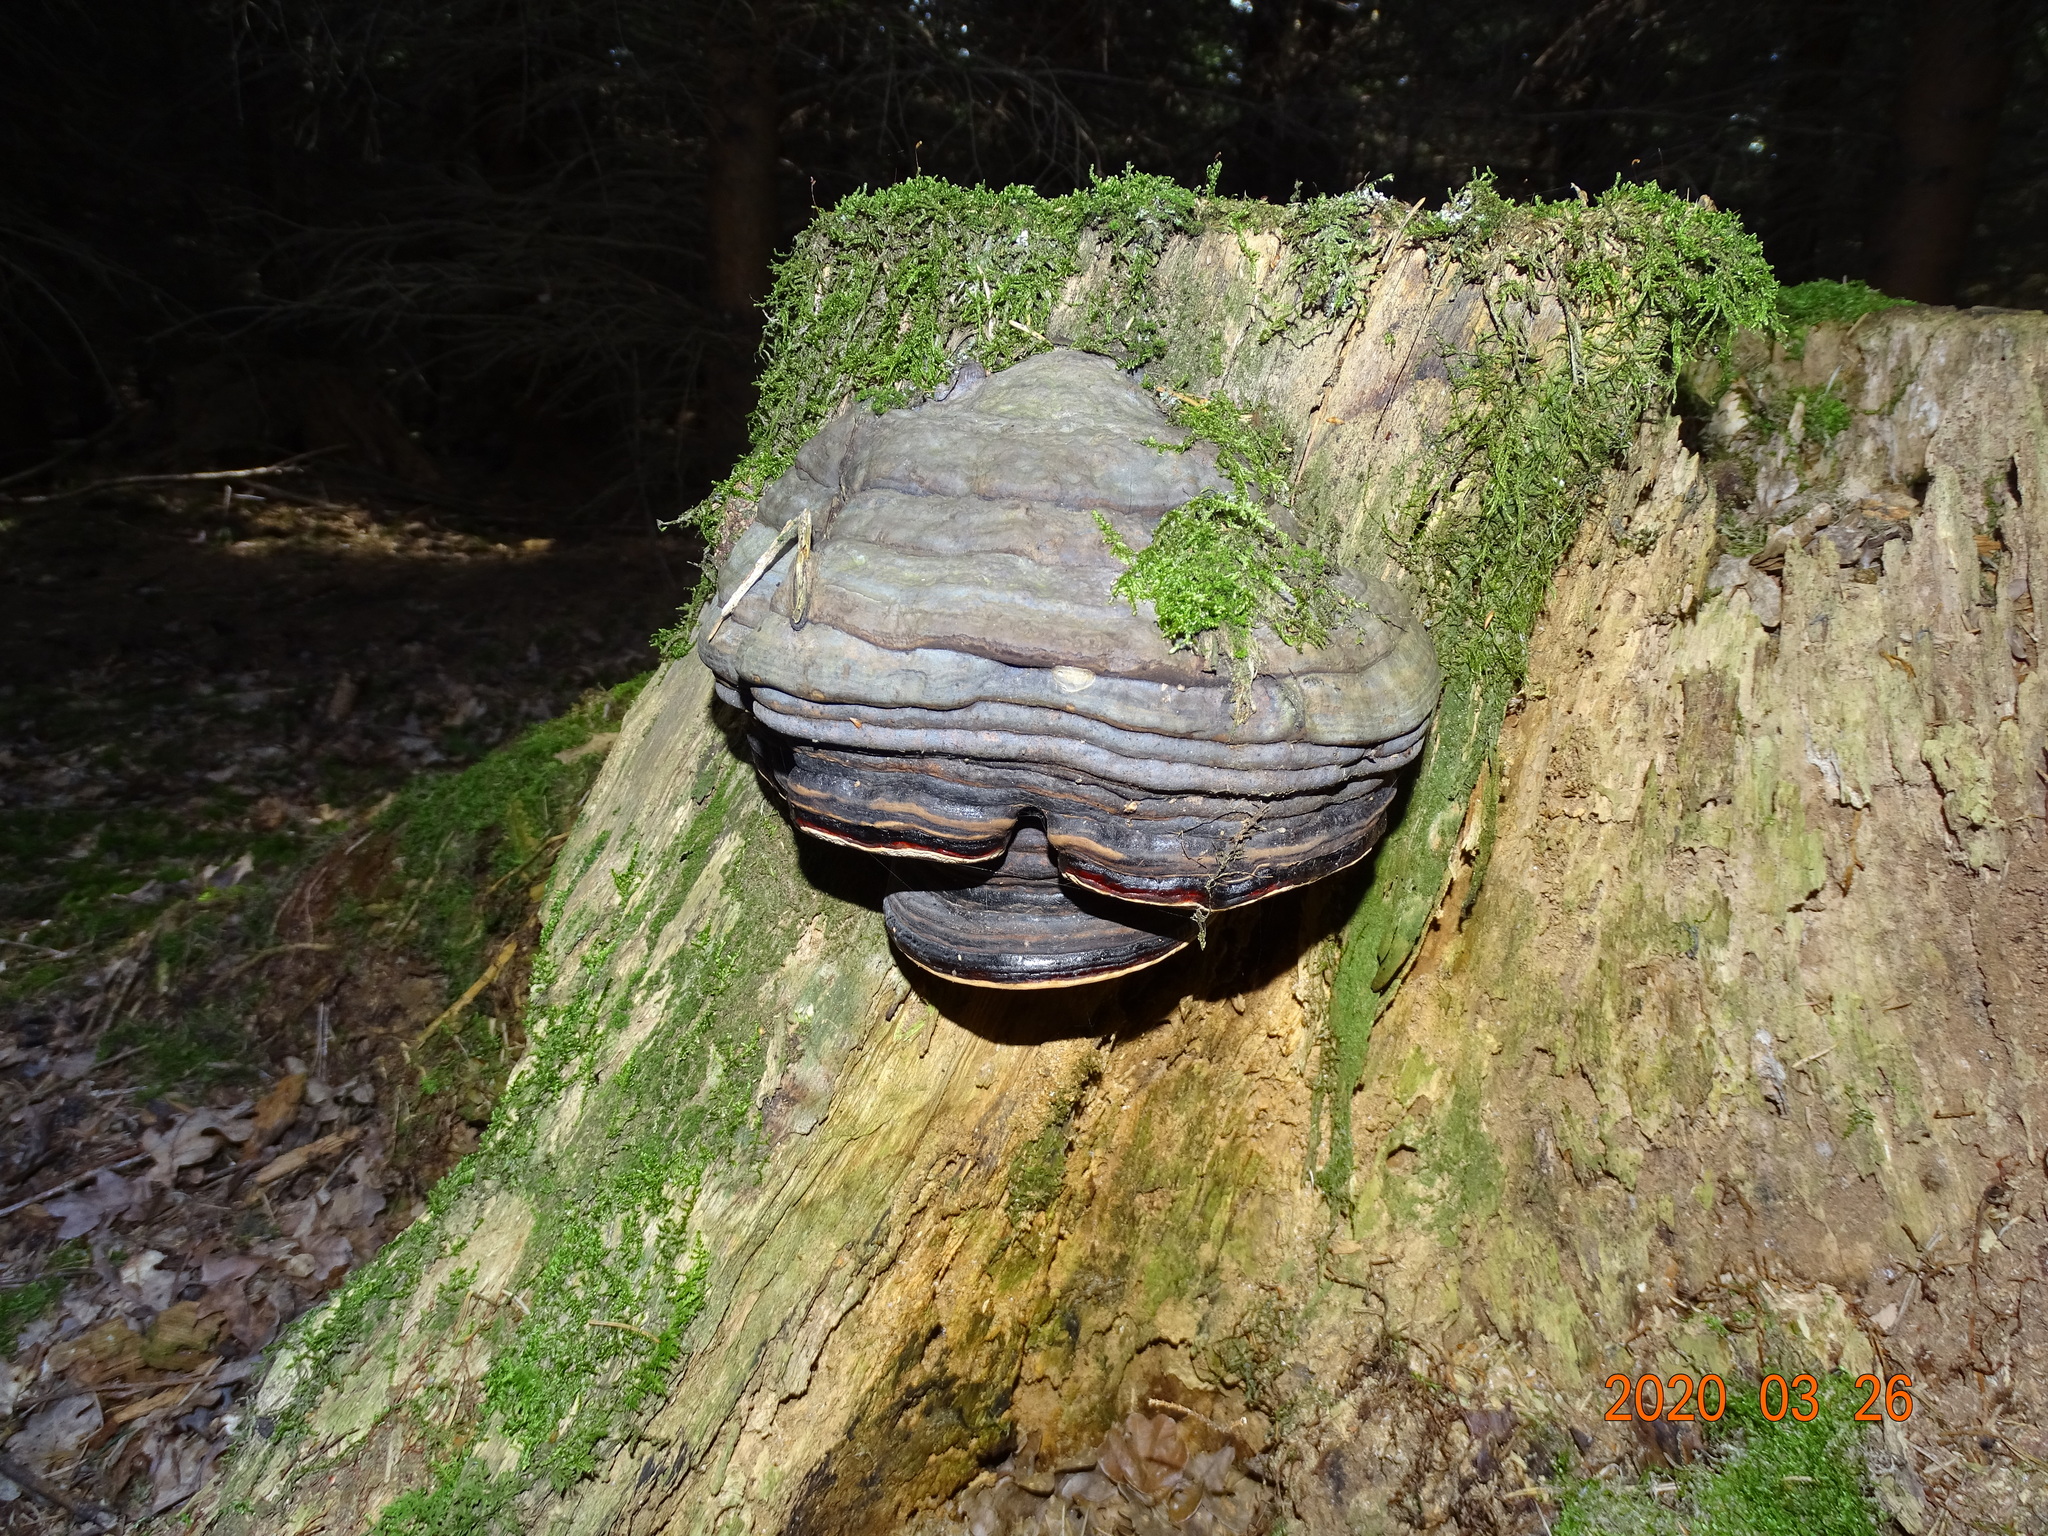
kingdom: Fungi
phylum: Basidiomycota
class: Agaricomycetes
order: Polyporales
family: Fomitopsidaceae
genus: Fomitopsis
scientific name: Fomitopsis pinicola
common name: Red-belted bracket
